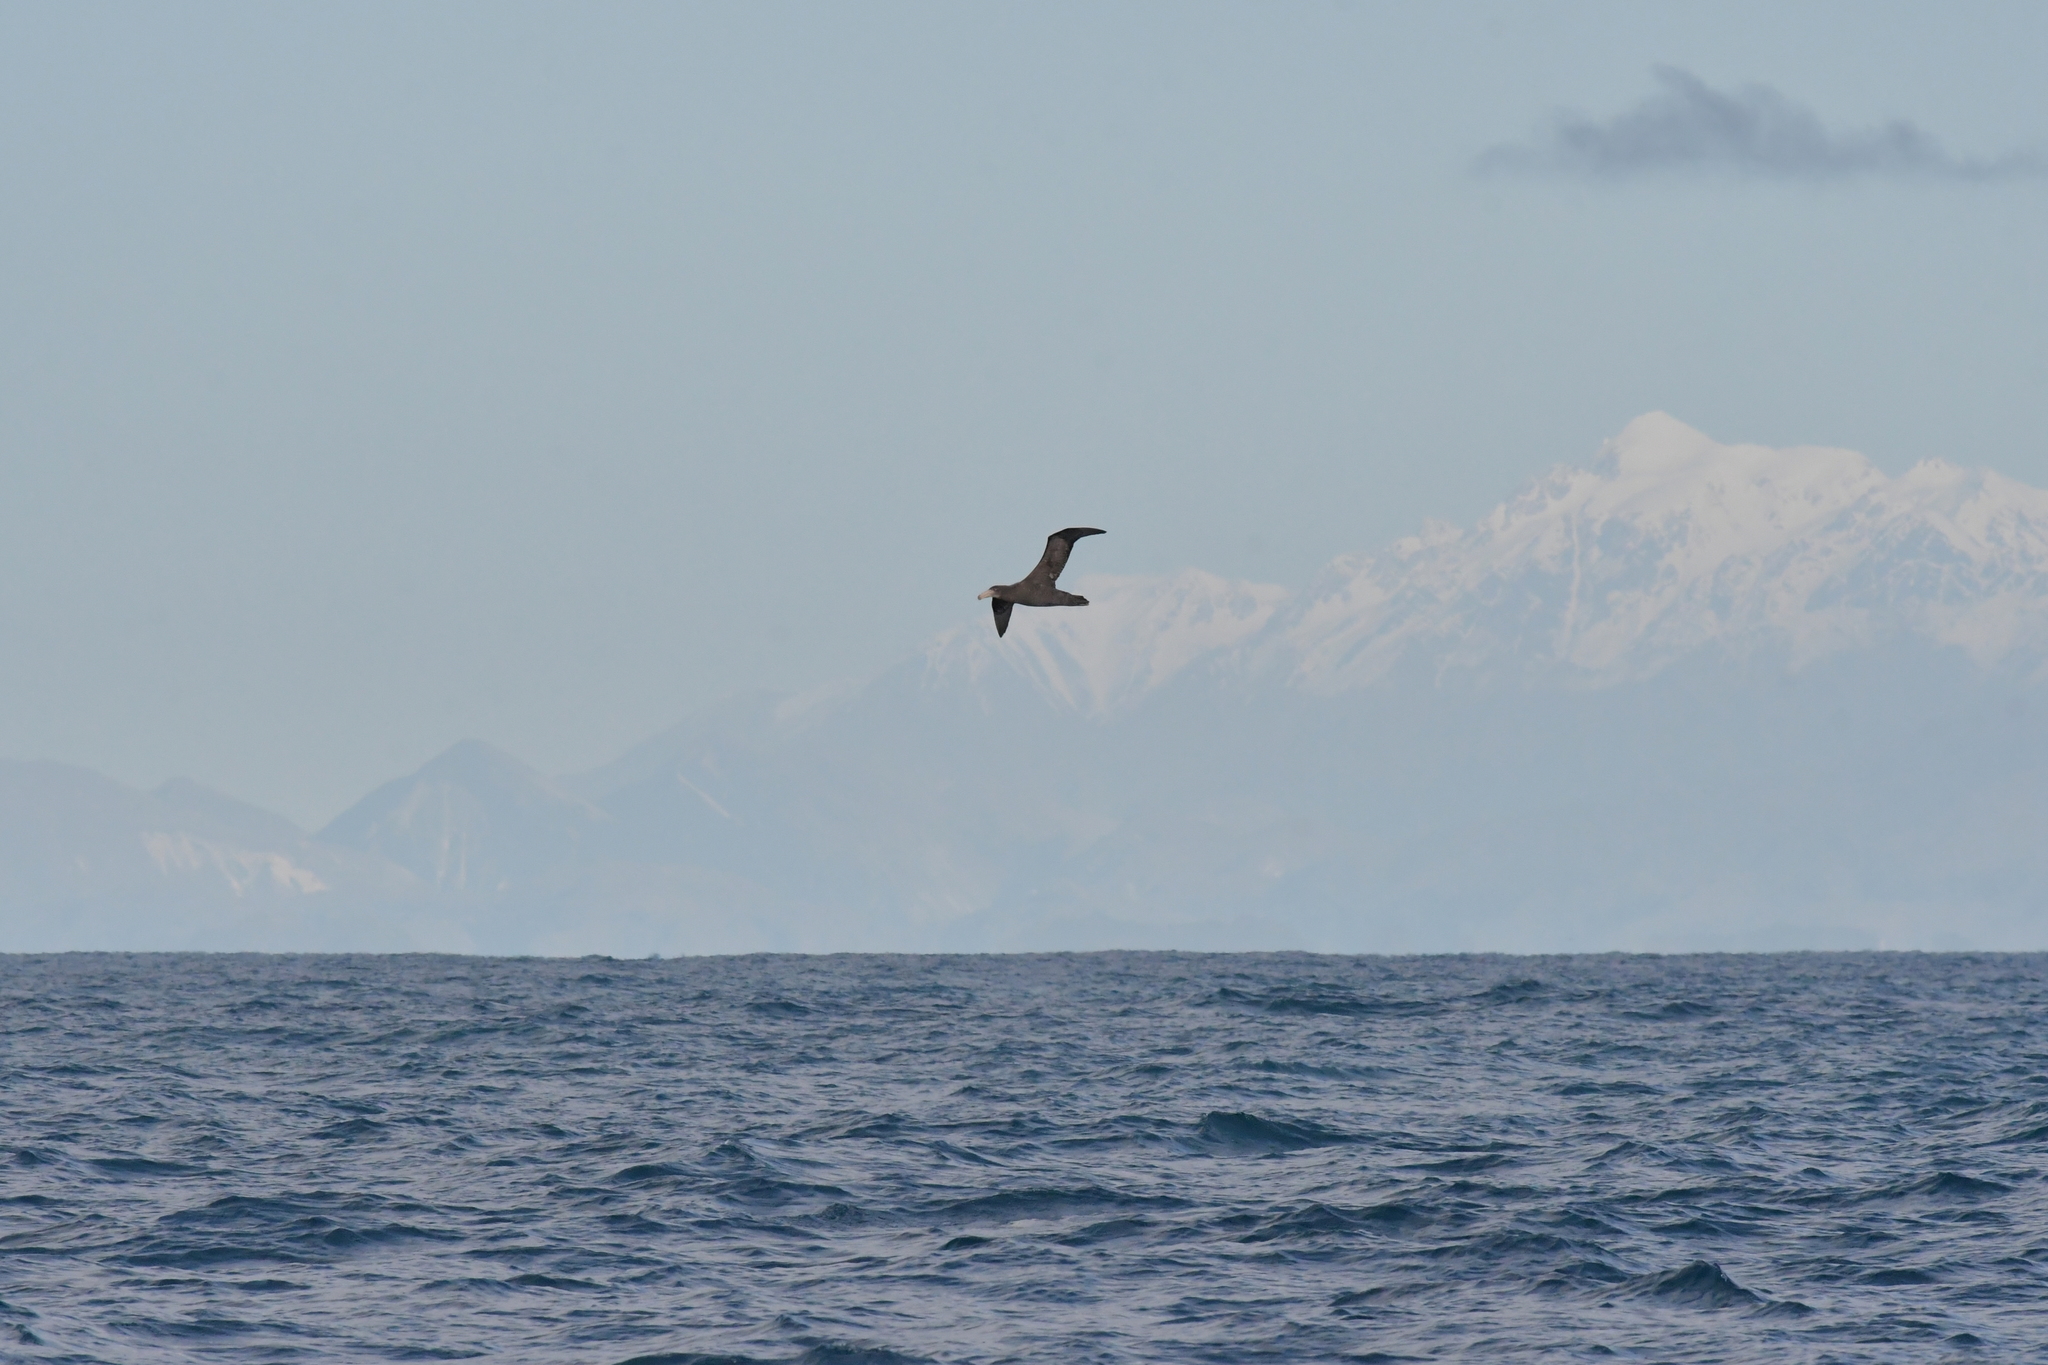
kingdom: Animalia
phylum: Chordata
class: Aves
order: Procellariiformes
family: Procellariidae
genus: Macronectes
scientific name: Macronectes halli
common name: Northern giant petrel
